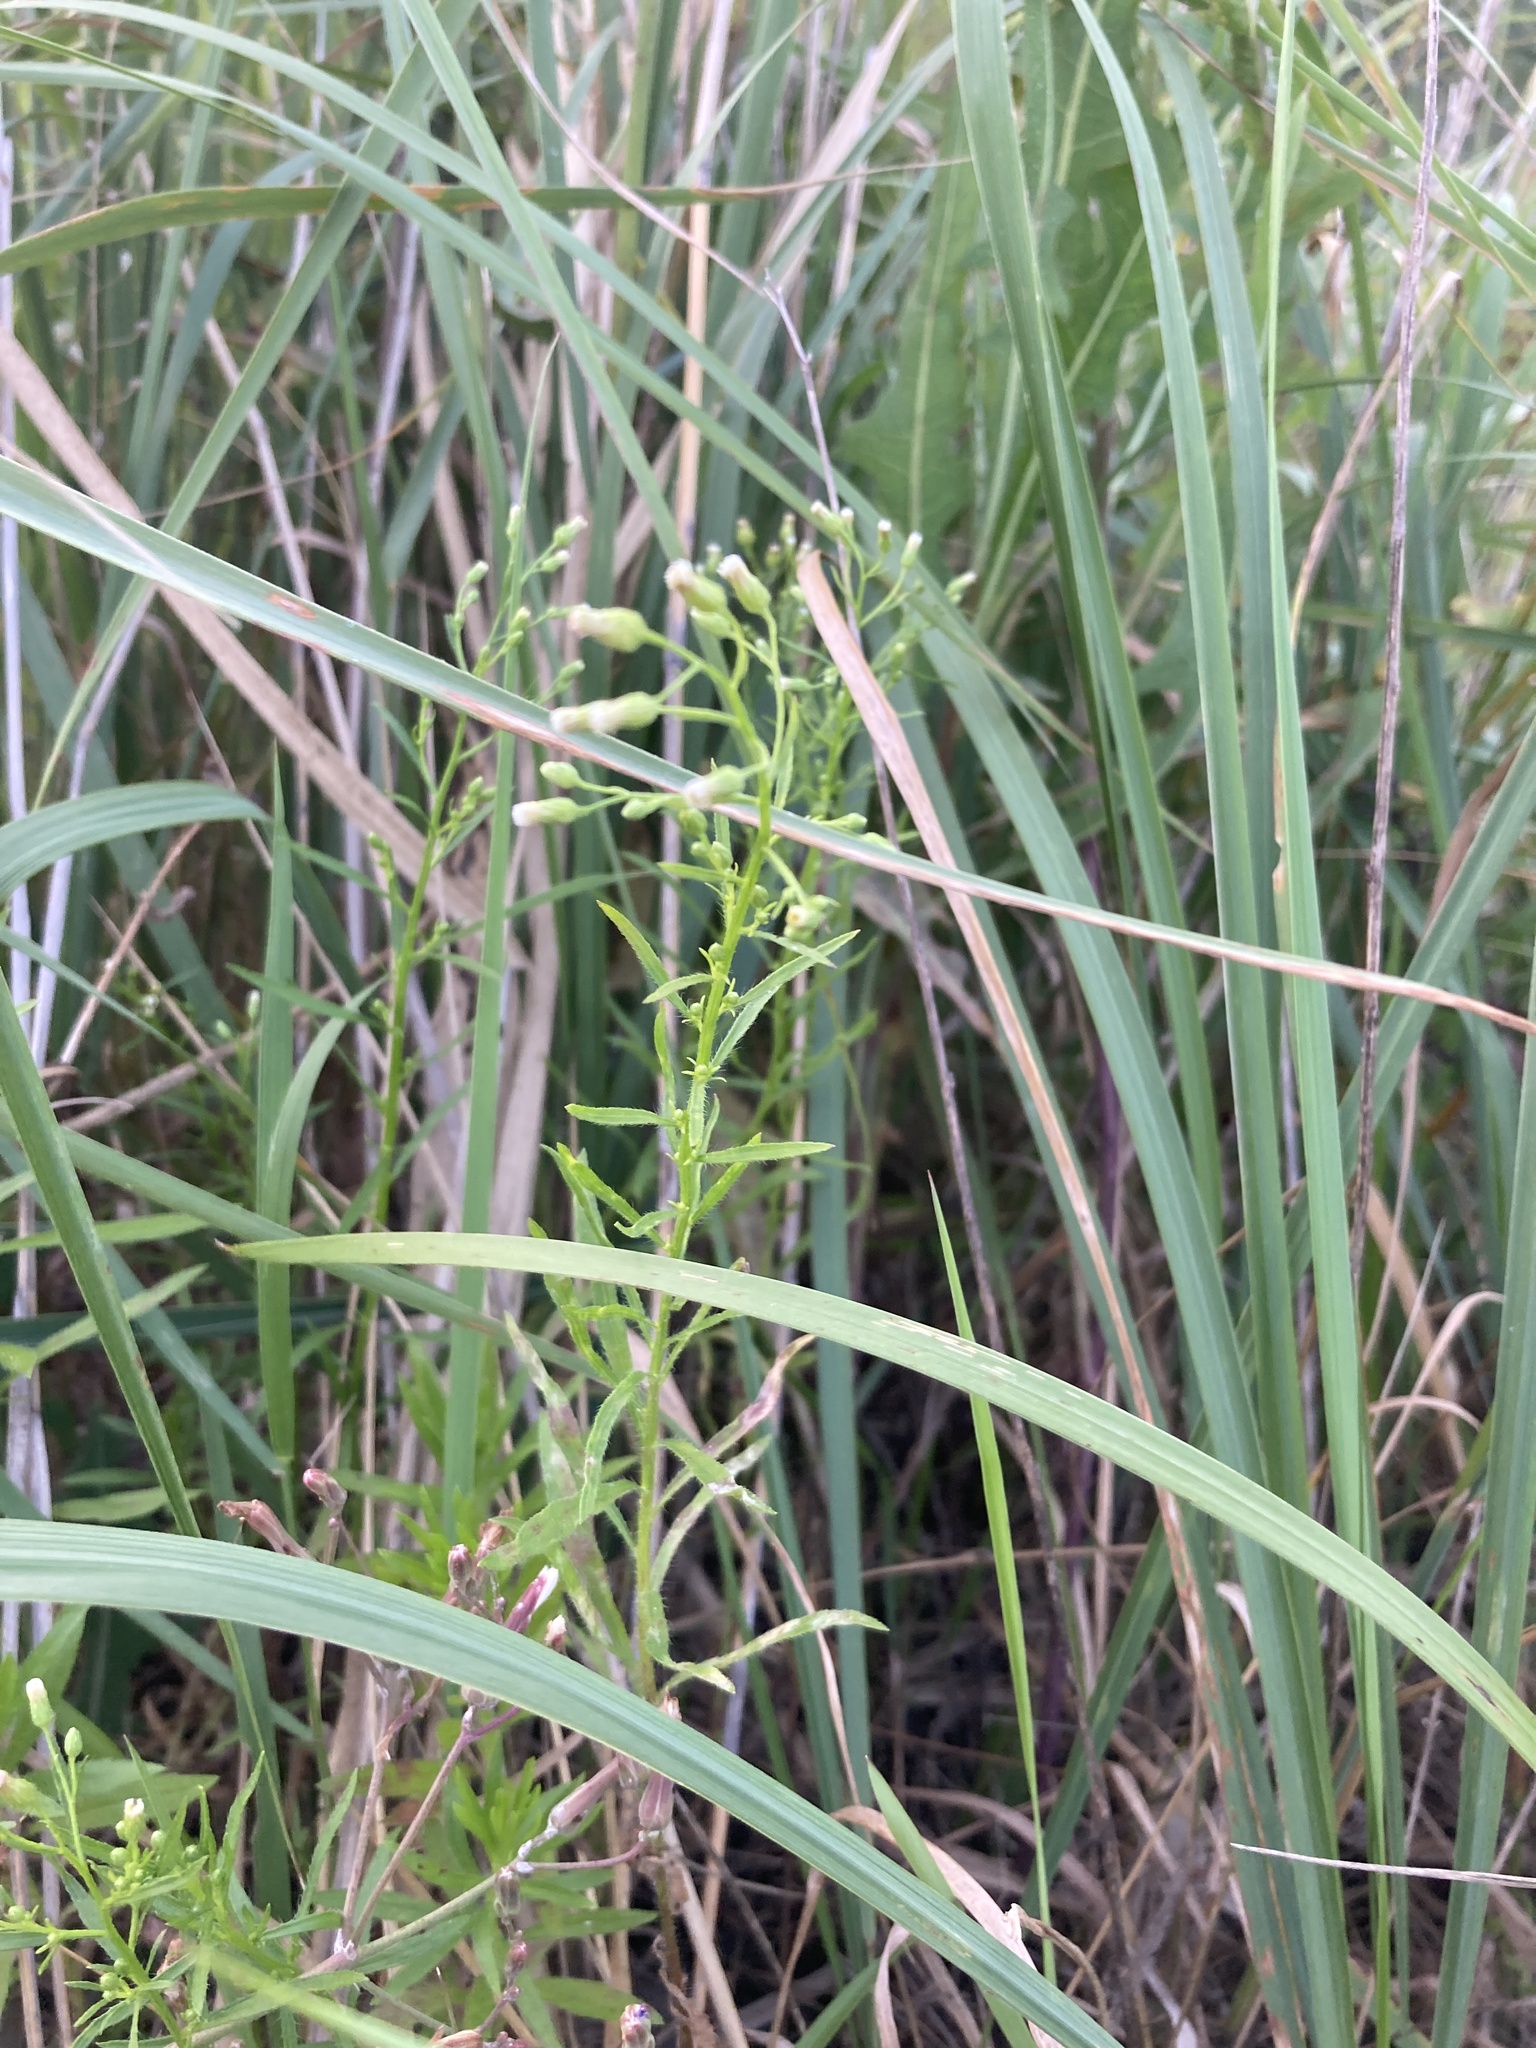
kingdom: Plantae
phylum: Tracheophyta
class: Magnoliopsida
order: Asterales
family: Asteraceae
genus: Erigeron
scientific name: Erigeron canadensis
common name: Canadian fleabane
